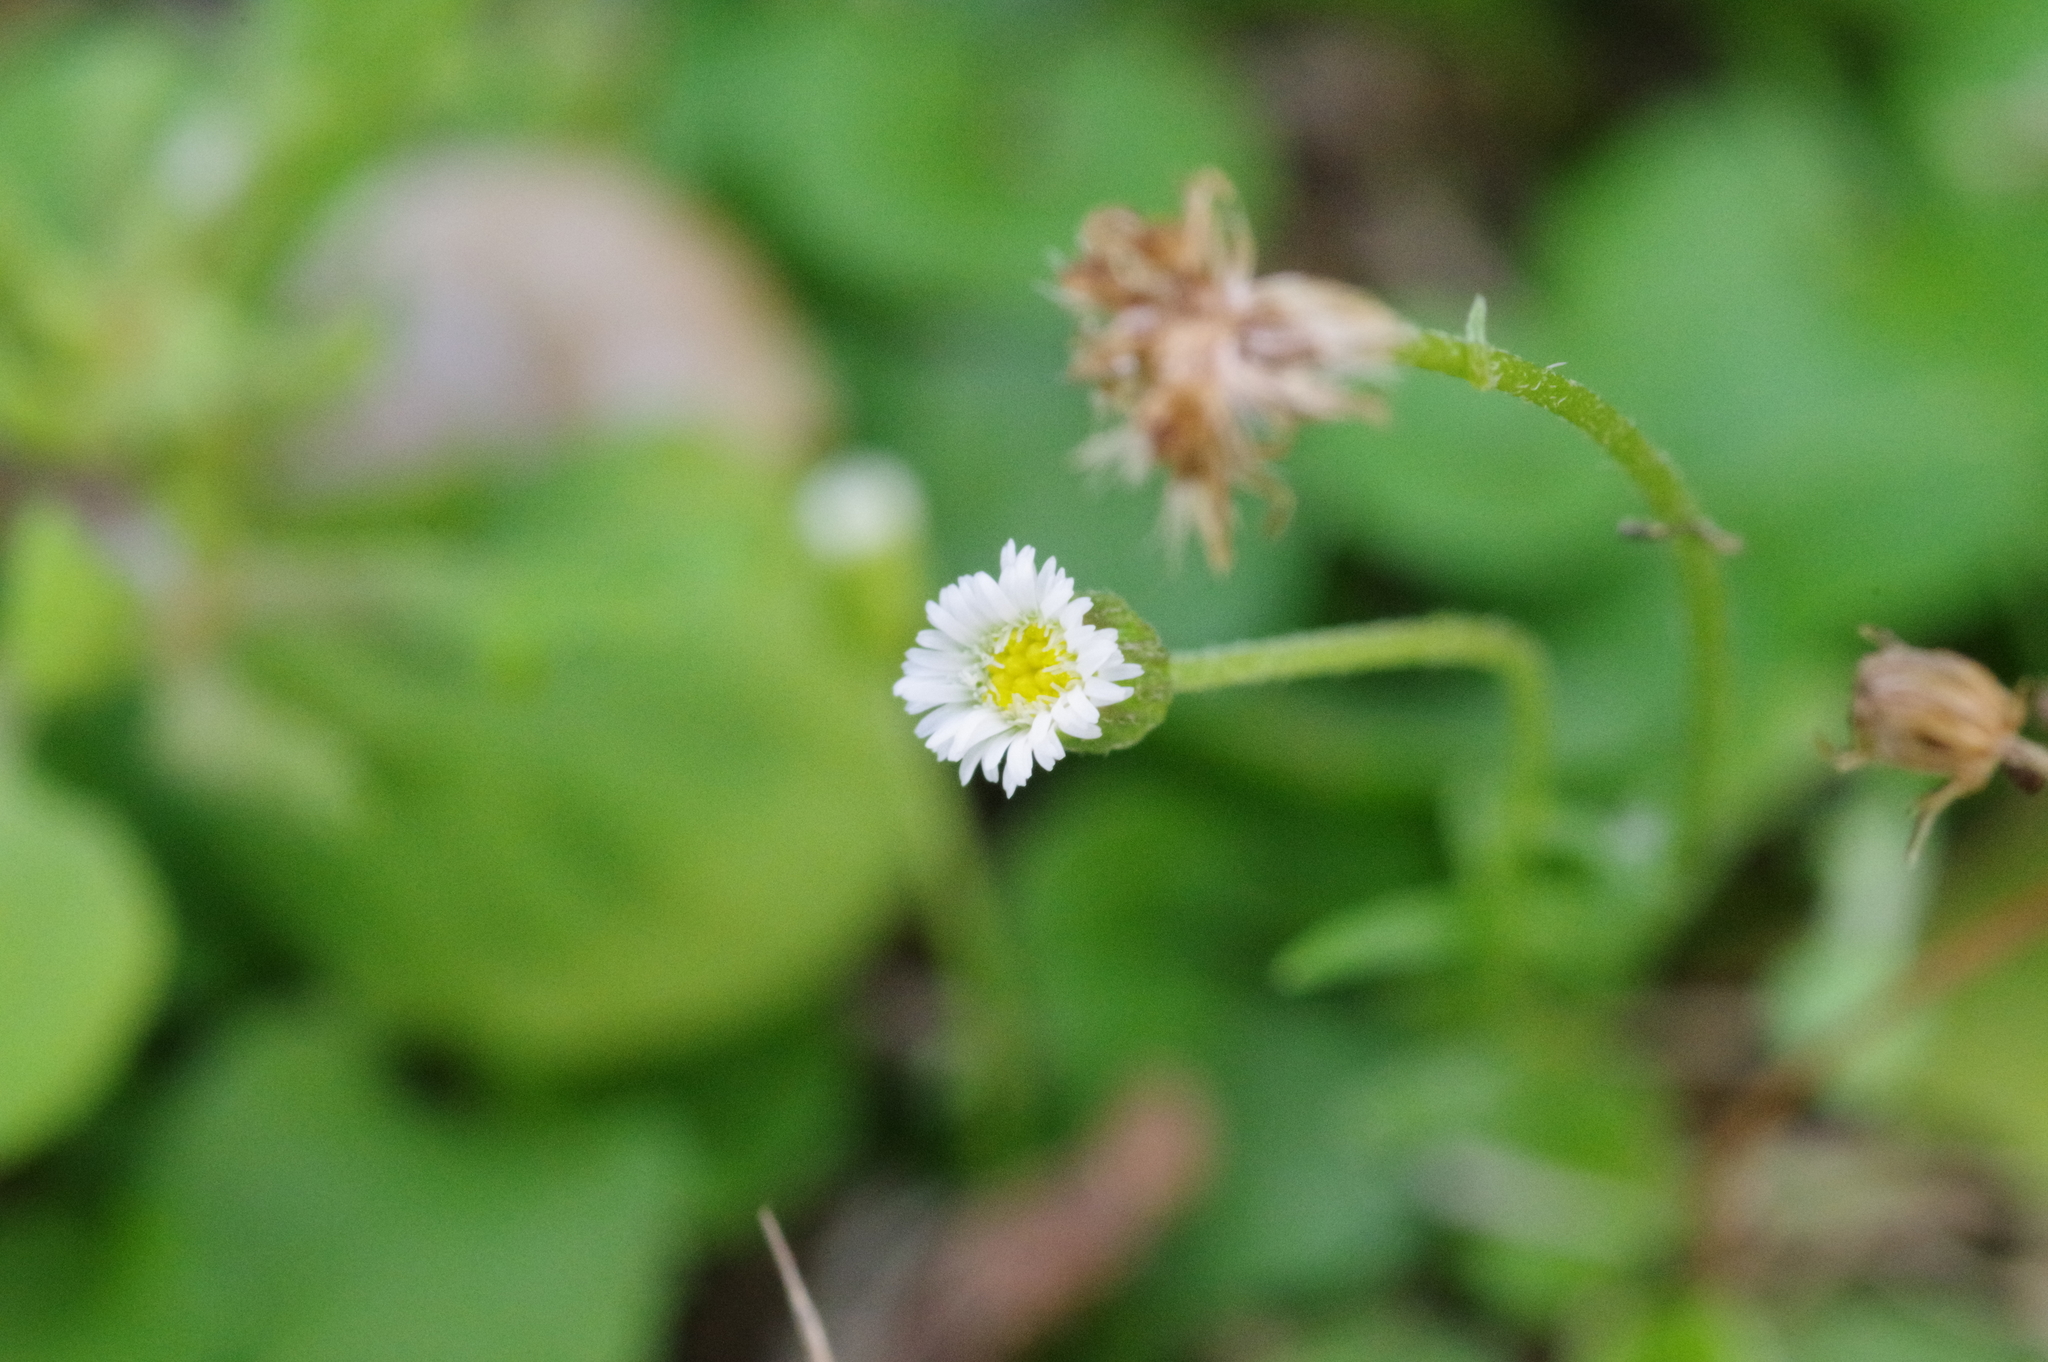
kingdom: Plantae
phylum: Tracheophyta
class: Magnoliopsida
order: Asterales
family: Asteraceae
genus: Erigeron
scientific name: Erigeron bellioides
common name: Bellorita
